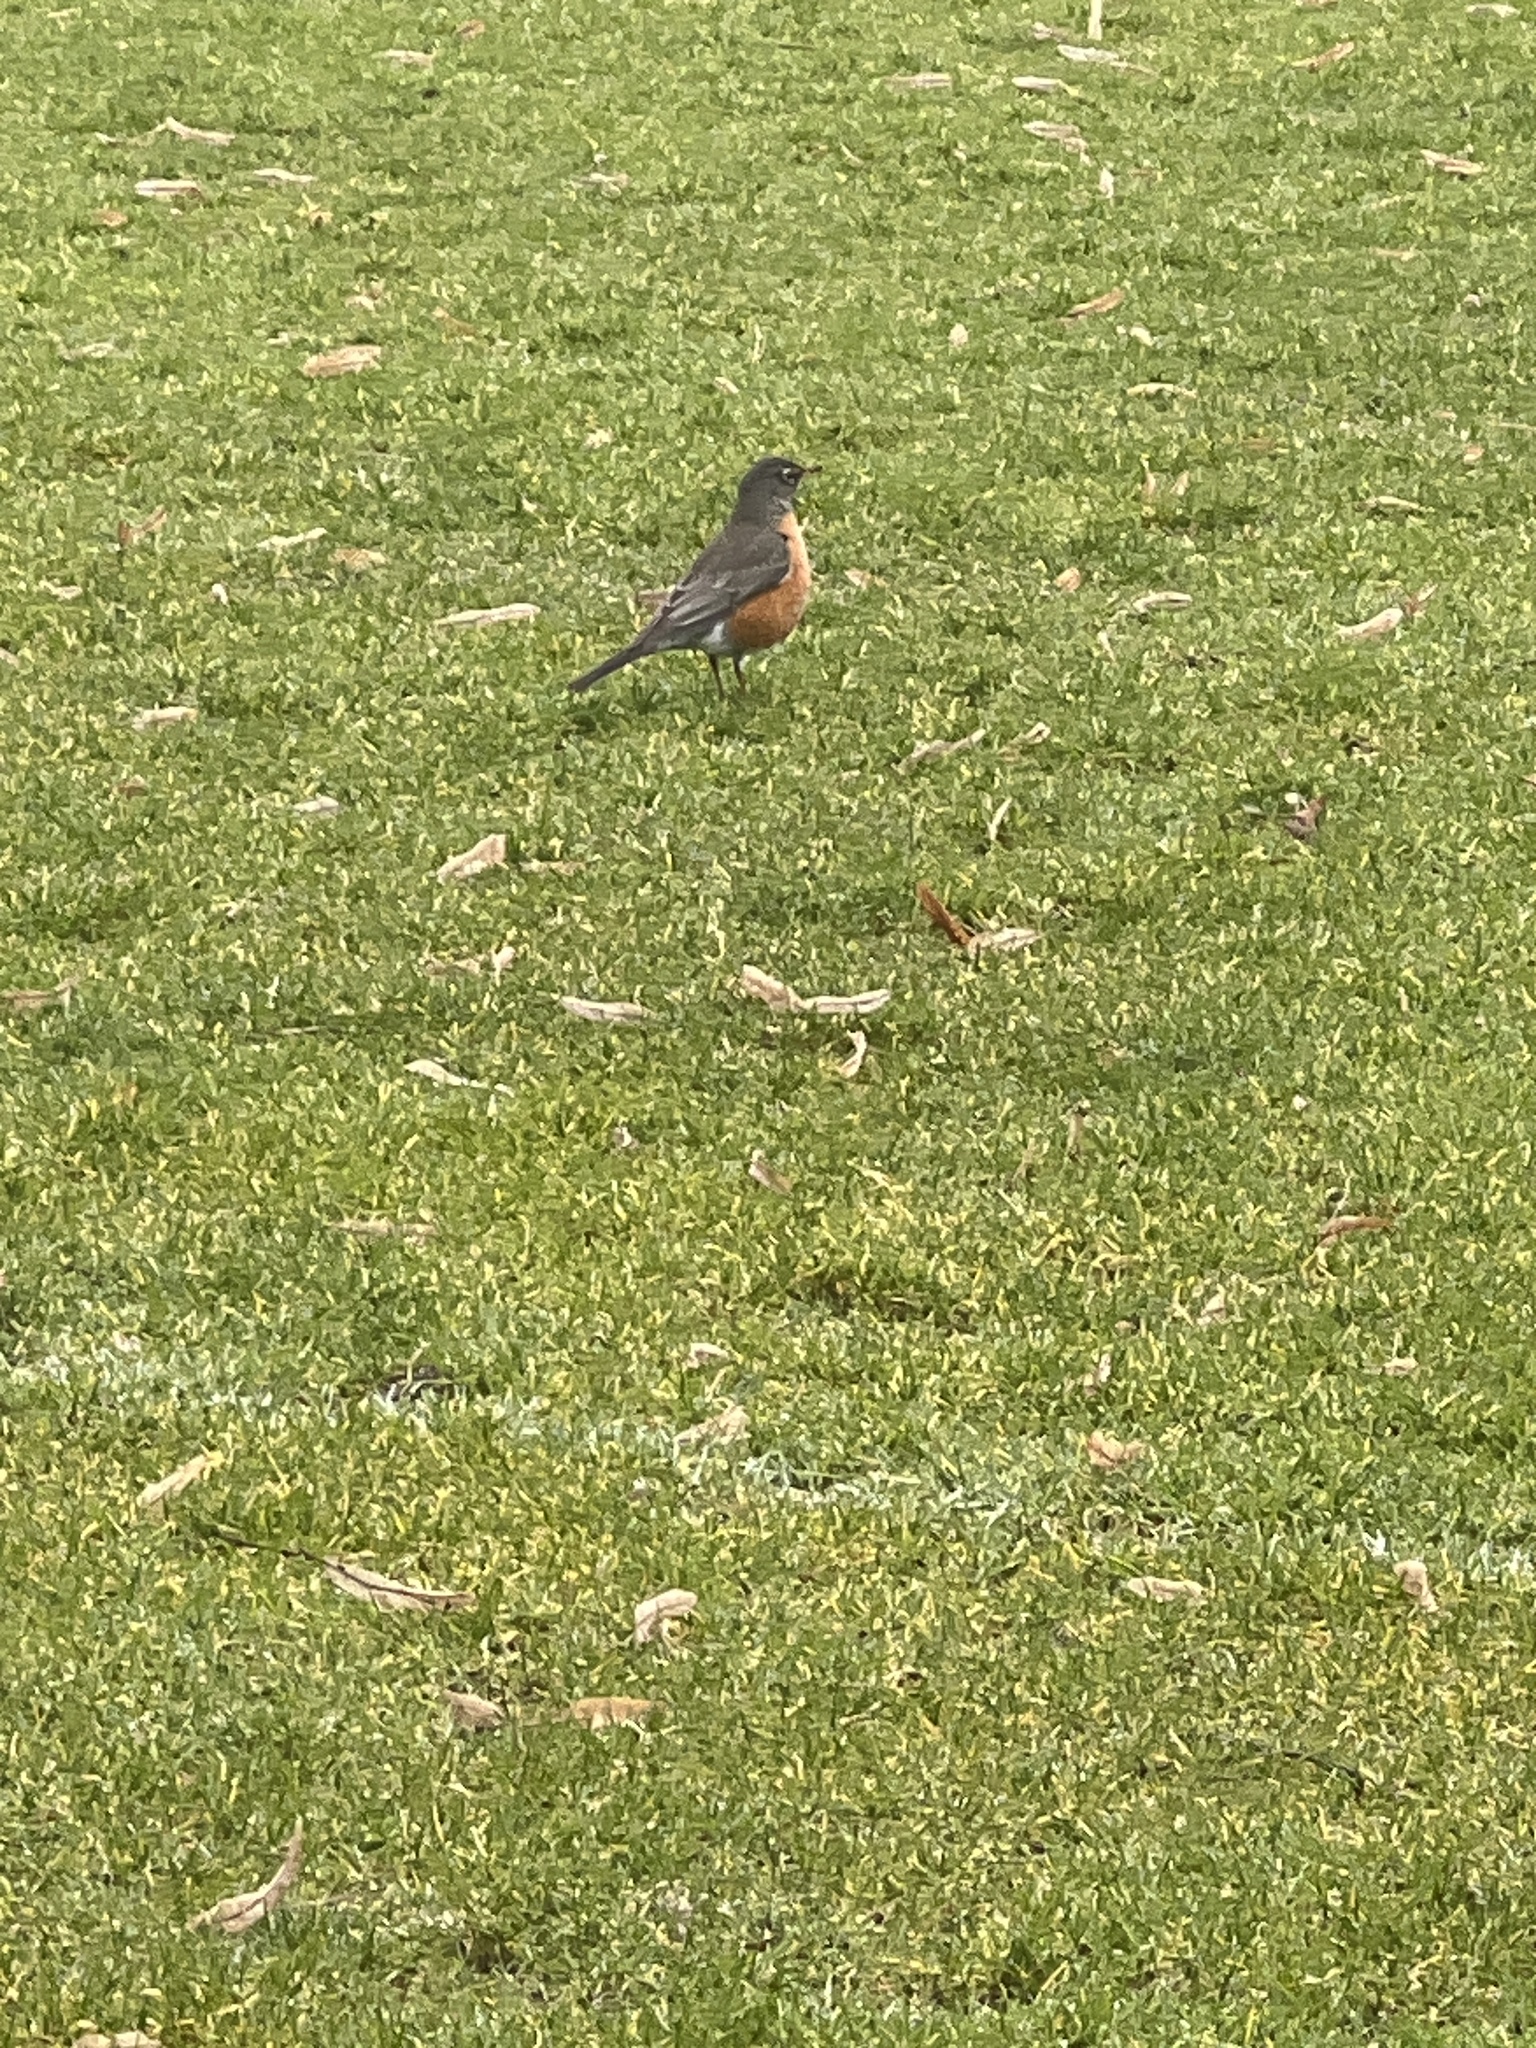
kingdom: Animalia
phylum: Chordata
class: Aves
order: Passeriformes
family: Turdidae
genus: Turdus
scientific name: Turdus migratorius
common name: American robin
